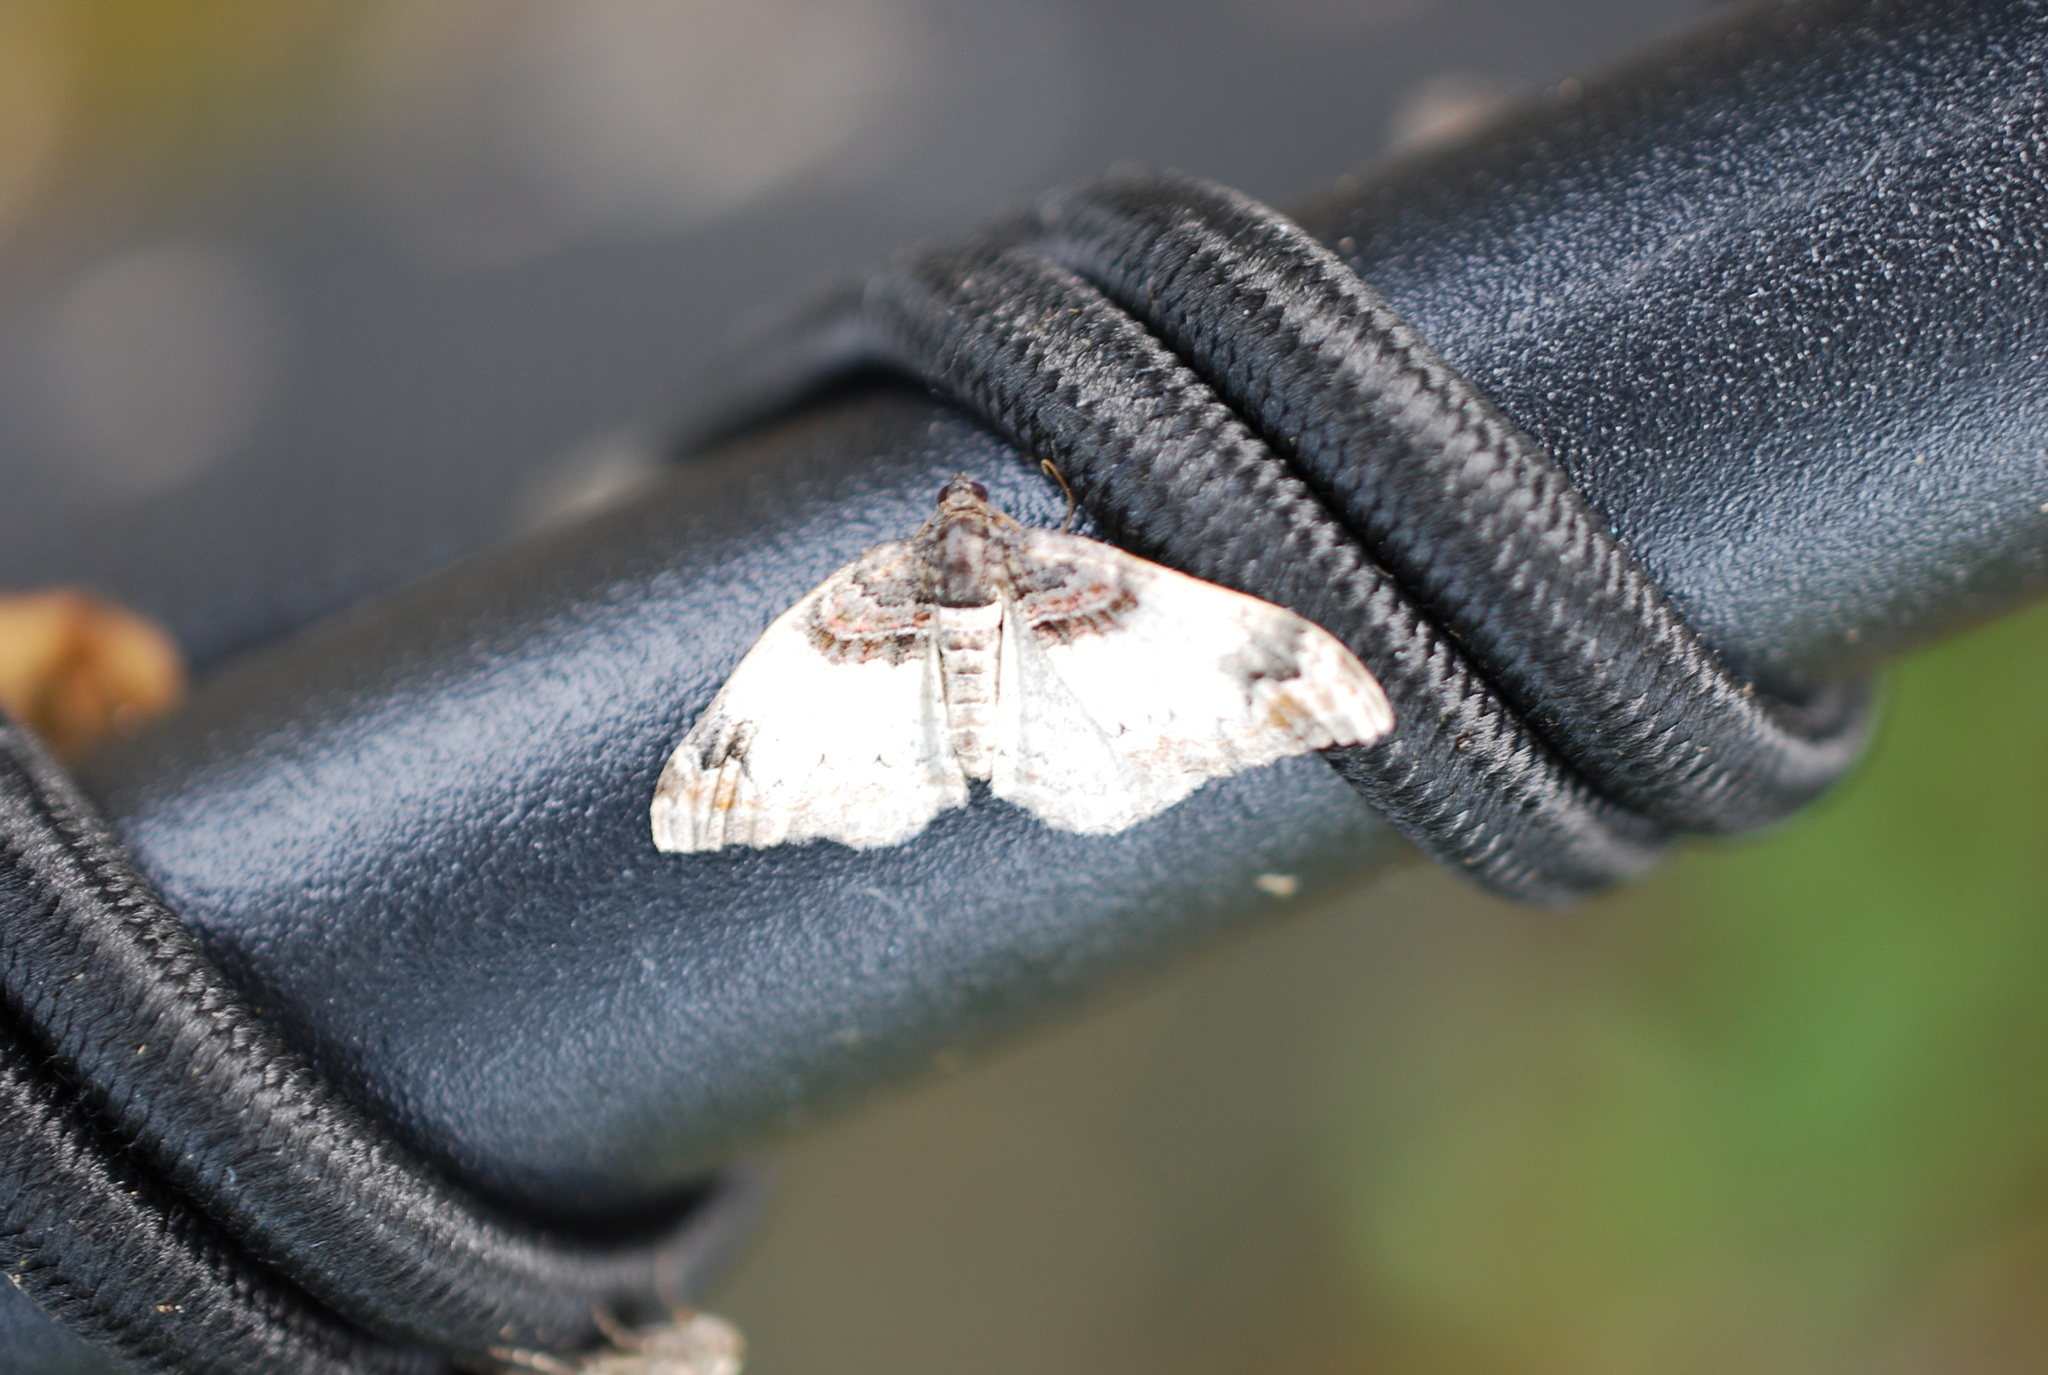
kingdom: Animalia
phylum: Arthropoda
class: Insecta
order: Lepidoptera
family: Geometridae
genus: Catarhoe
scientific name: Catarhoe cuculata
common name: Royal mantle
